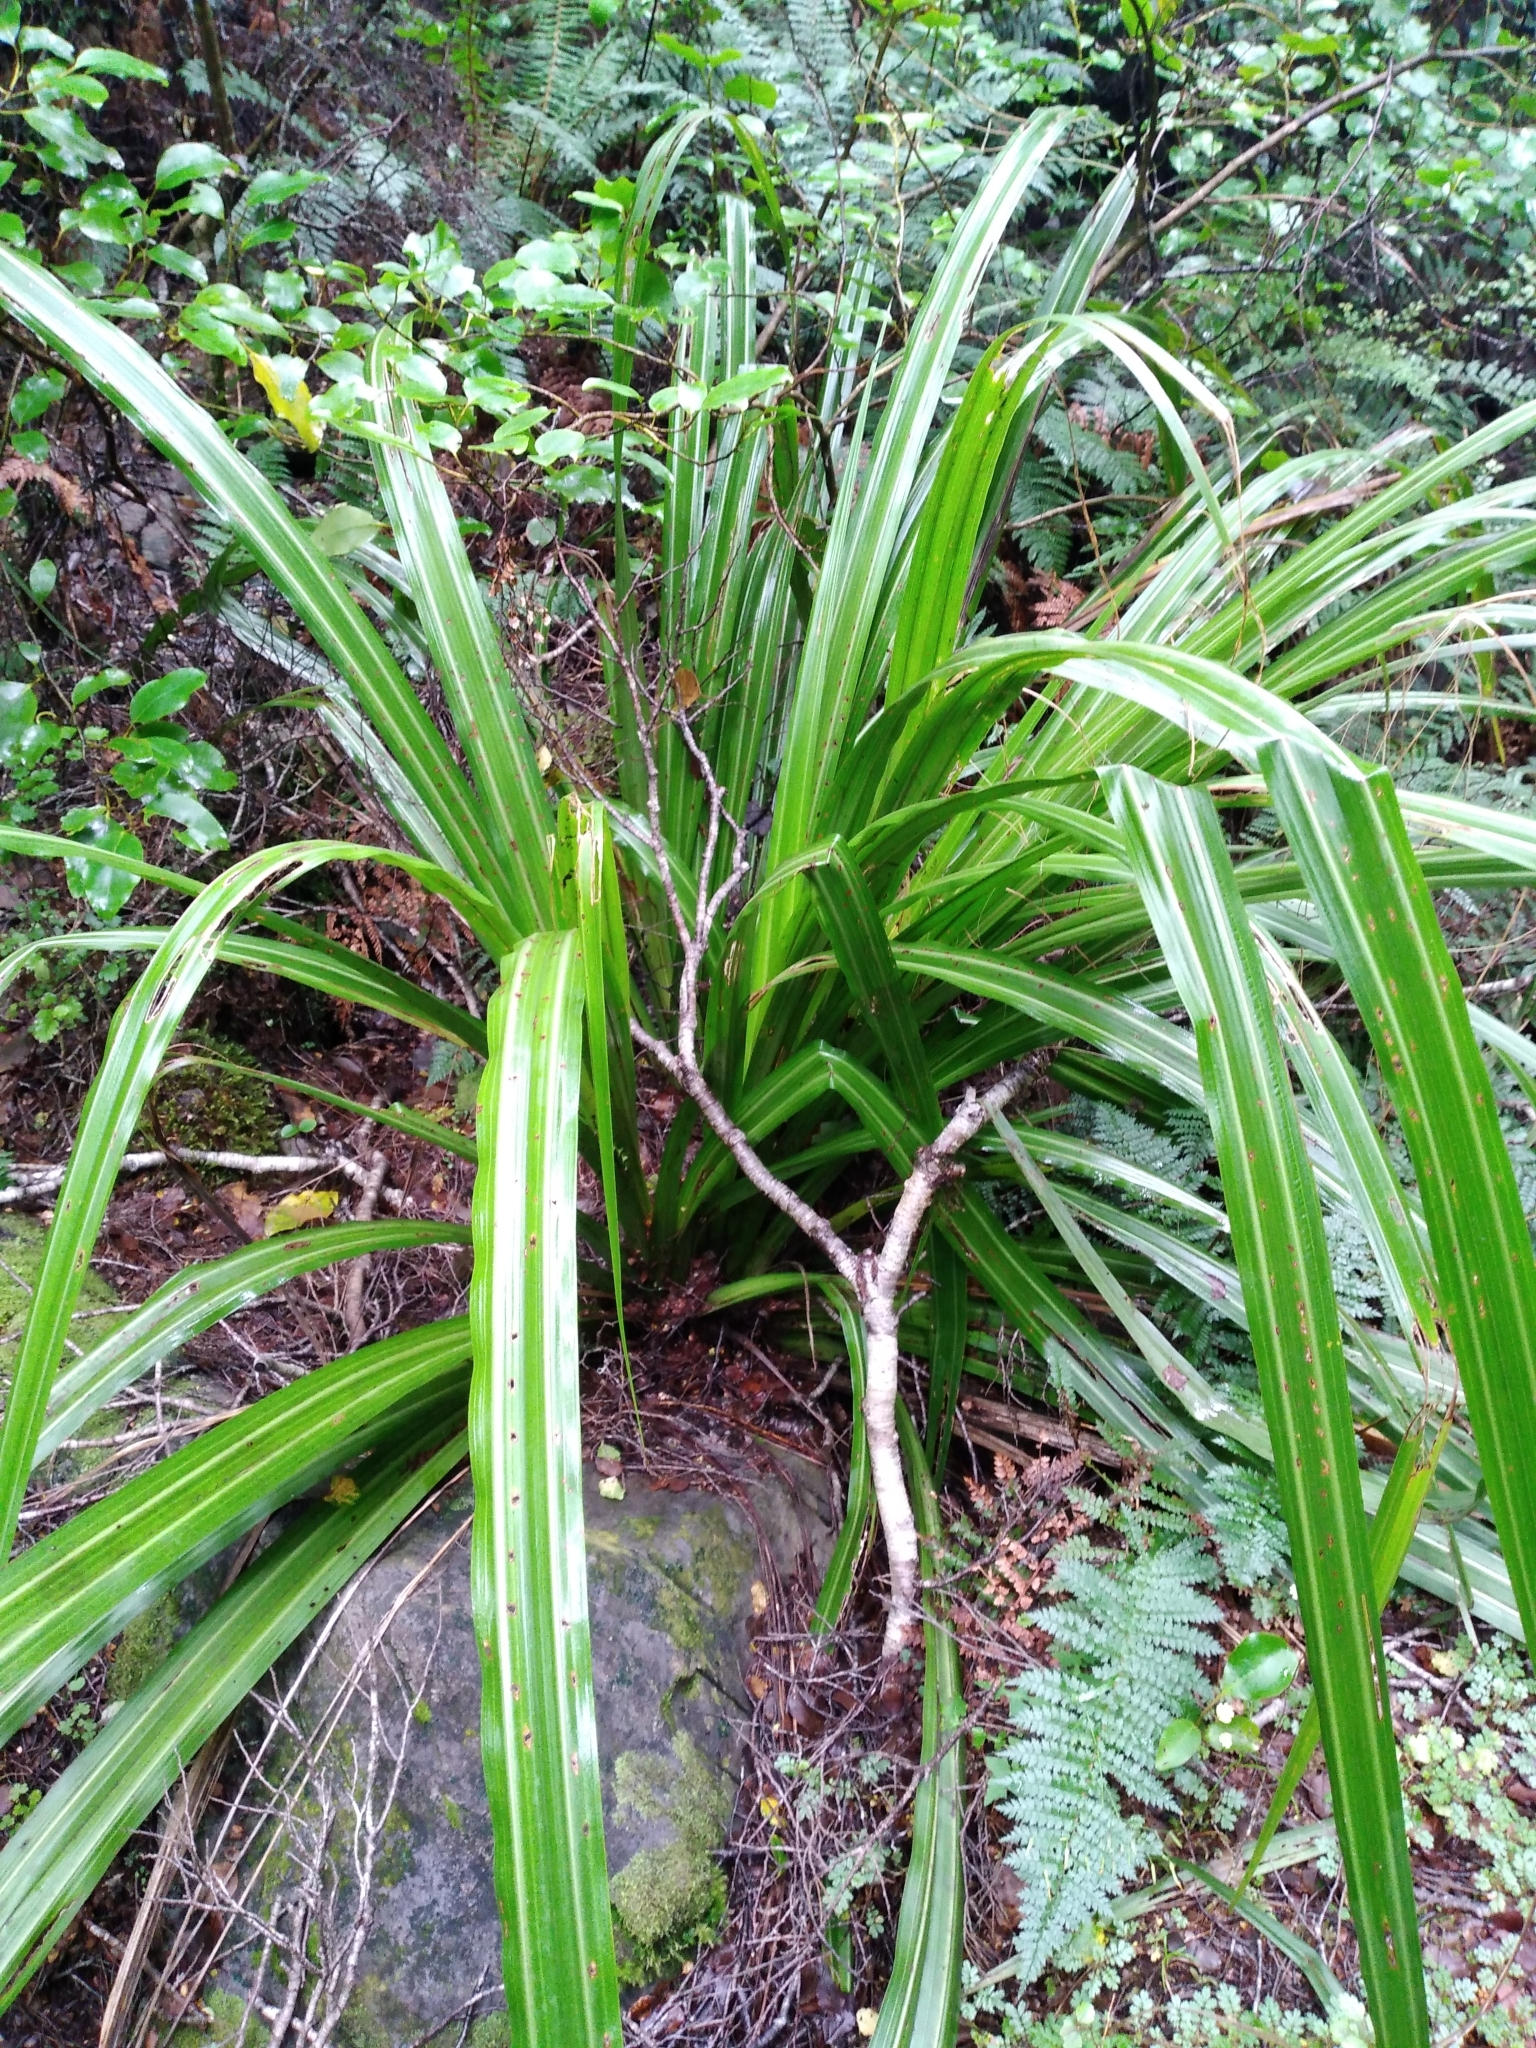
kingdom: Plantae
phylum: Tracheophyta
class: Liliopsida
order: Asparagales
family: Asteliaceae
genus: Astelia
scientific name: Astelia fragrans
